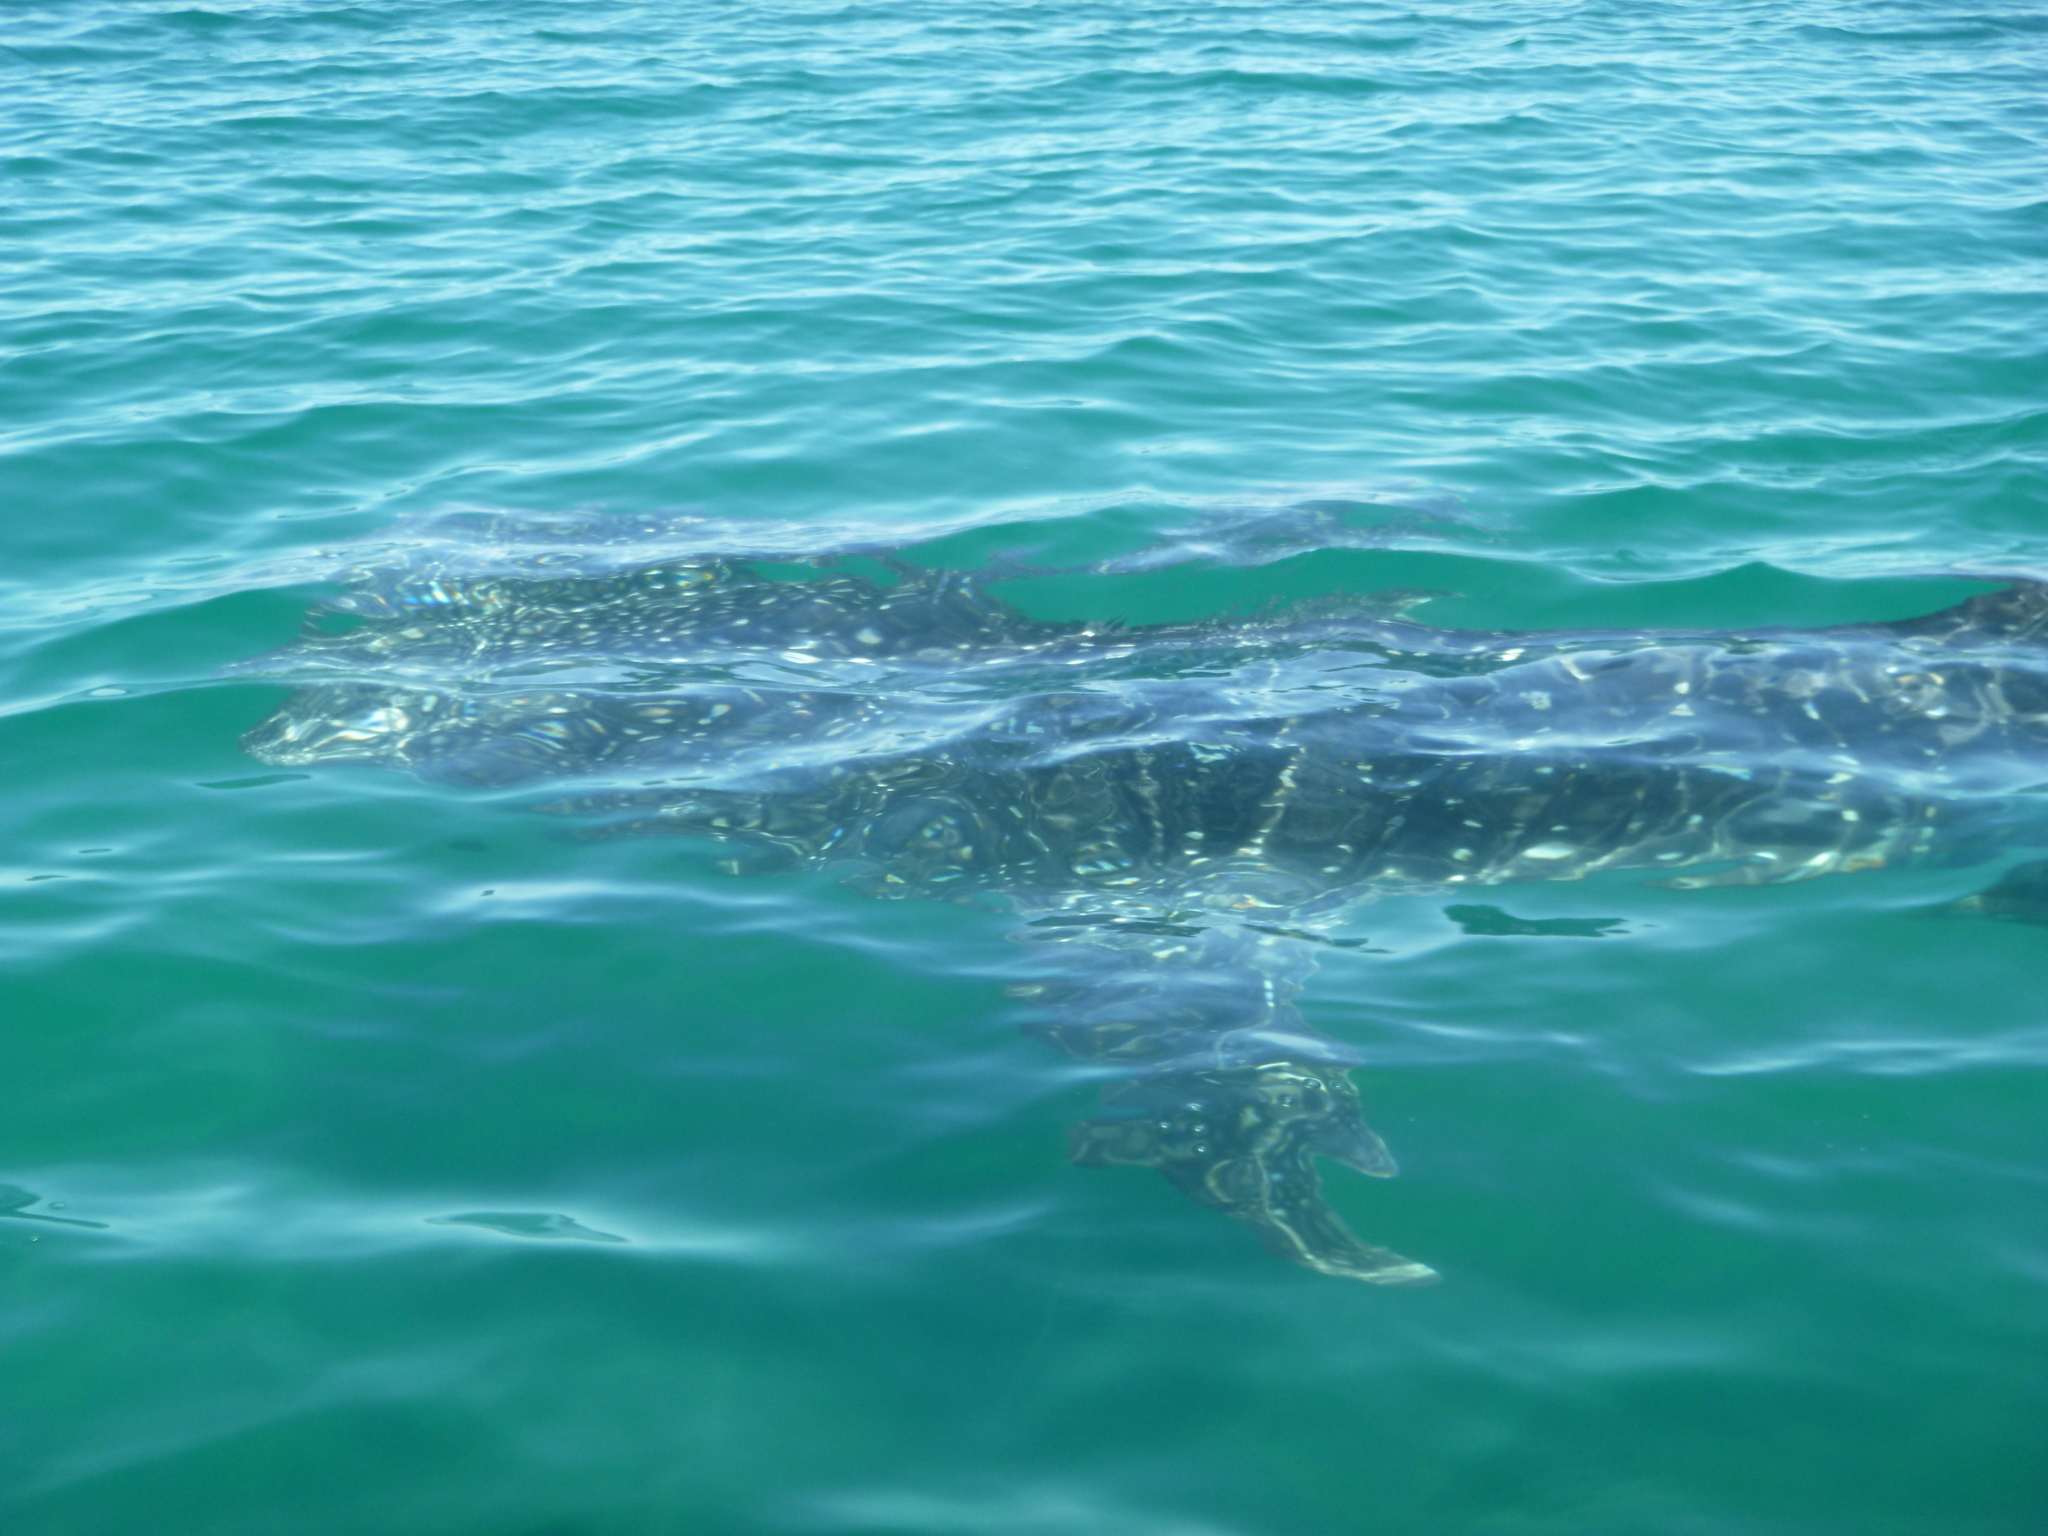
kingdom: Animalia
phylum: Chordata
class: Elasmobranchii
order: Orectolobiformes
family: Rhincodontidae
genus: Rhincodon
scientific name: Rhincodon typus
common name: Whale shark
